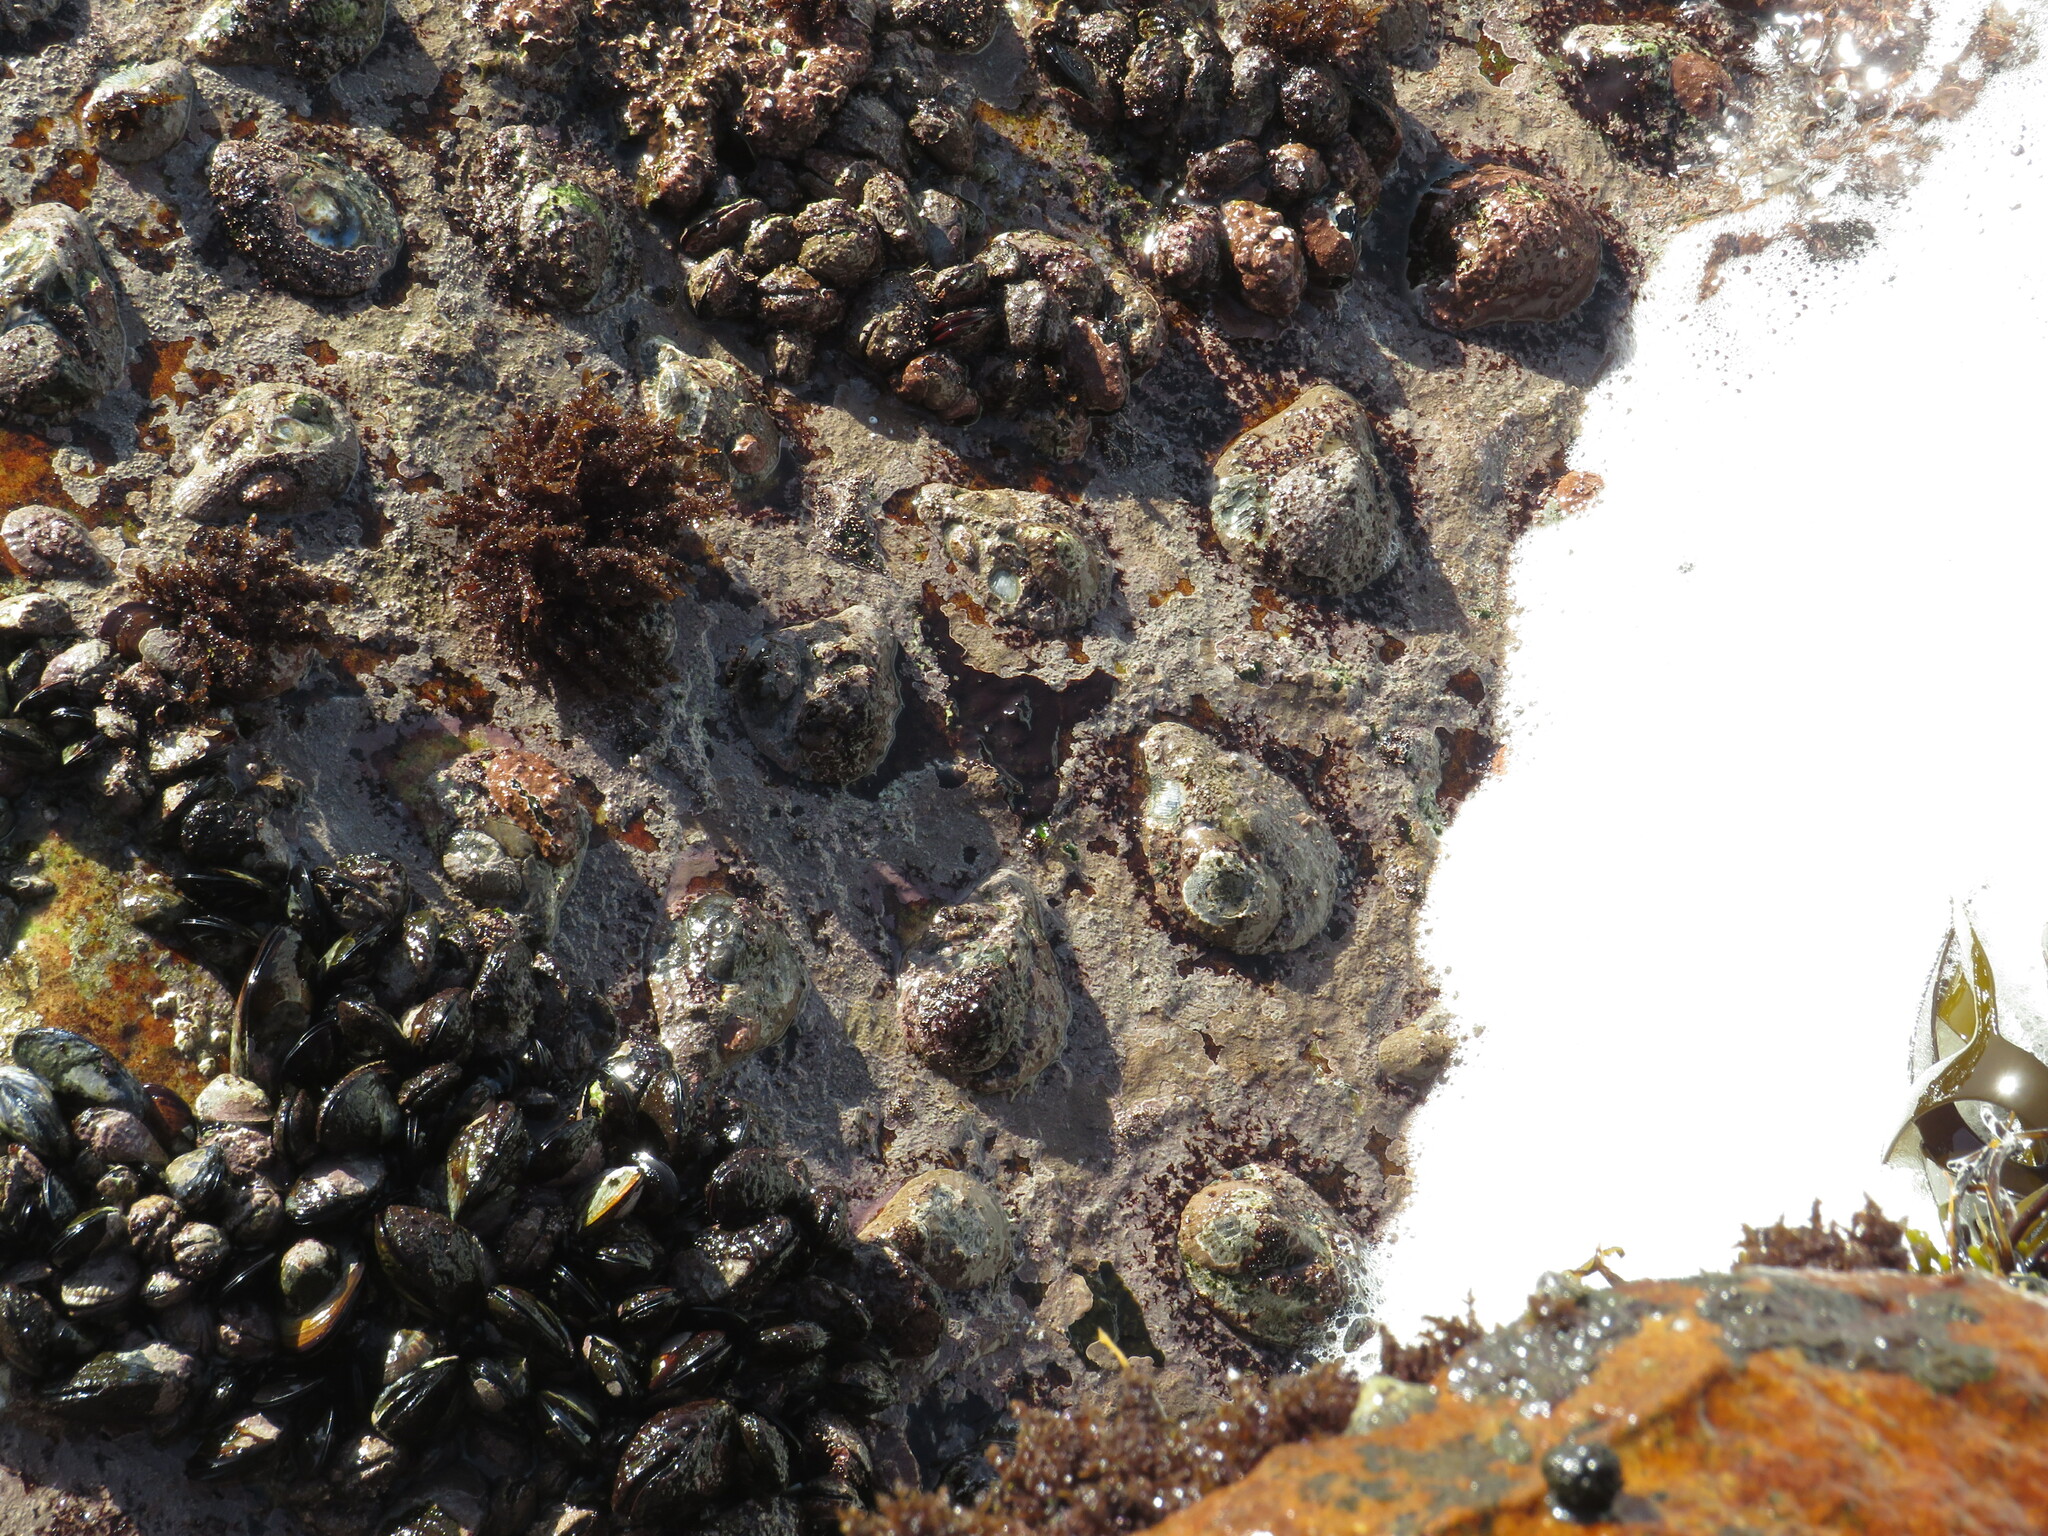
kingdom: Animalia
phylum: Mollusca
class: Gastropoda
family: Patellidae
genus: Scutellastra
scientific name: Scutellastra cochlear
